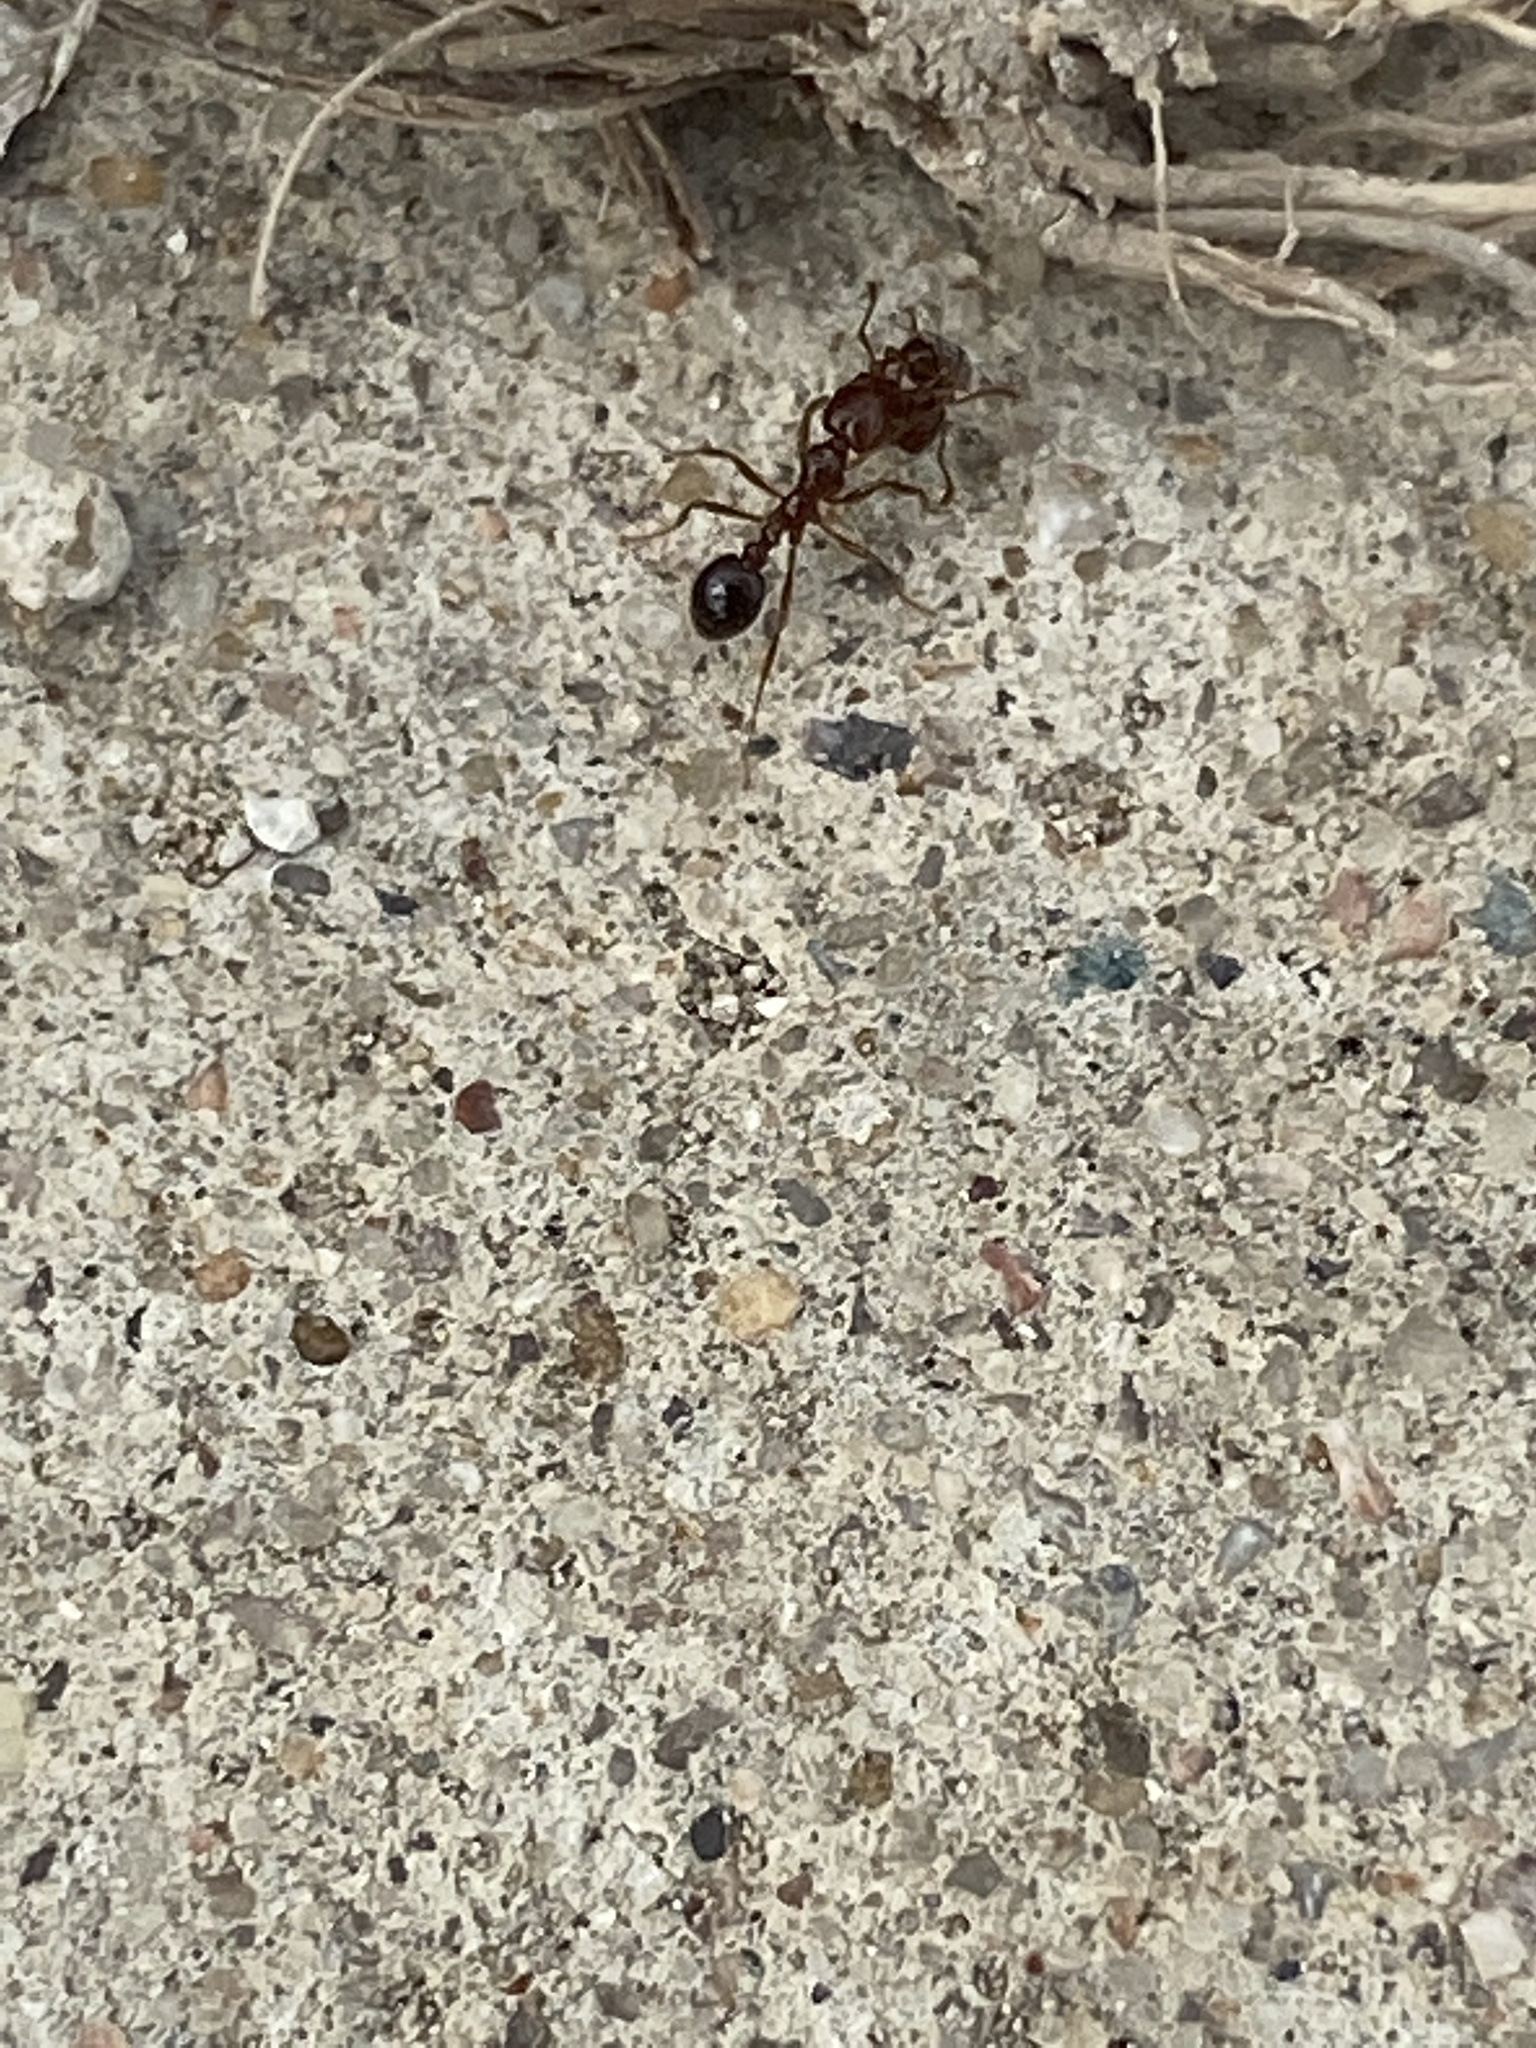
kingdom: Animalia
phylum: Arthropoda
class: Insecta
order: Hymenoptera
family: Formicidae
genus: Solenopsis
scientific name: Solenopsis invicta
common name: Red imported fire ant
